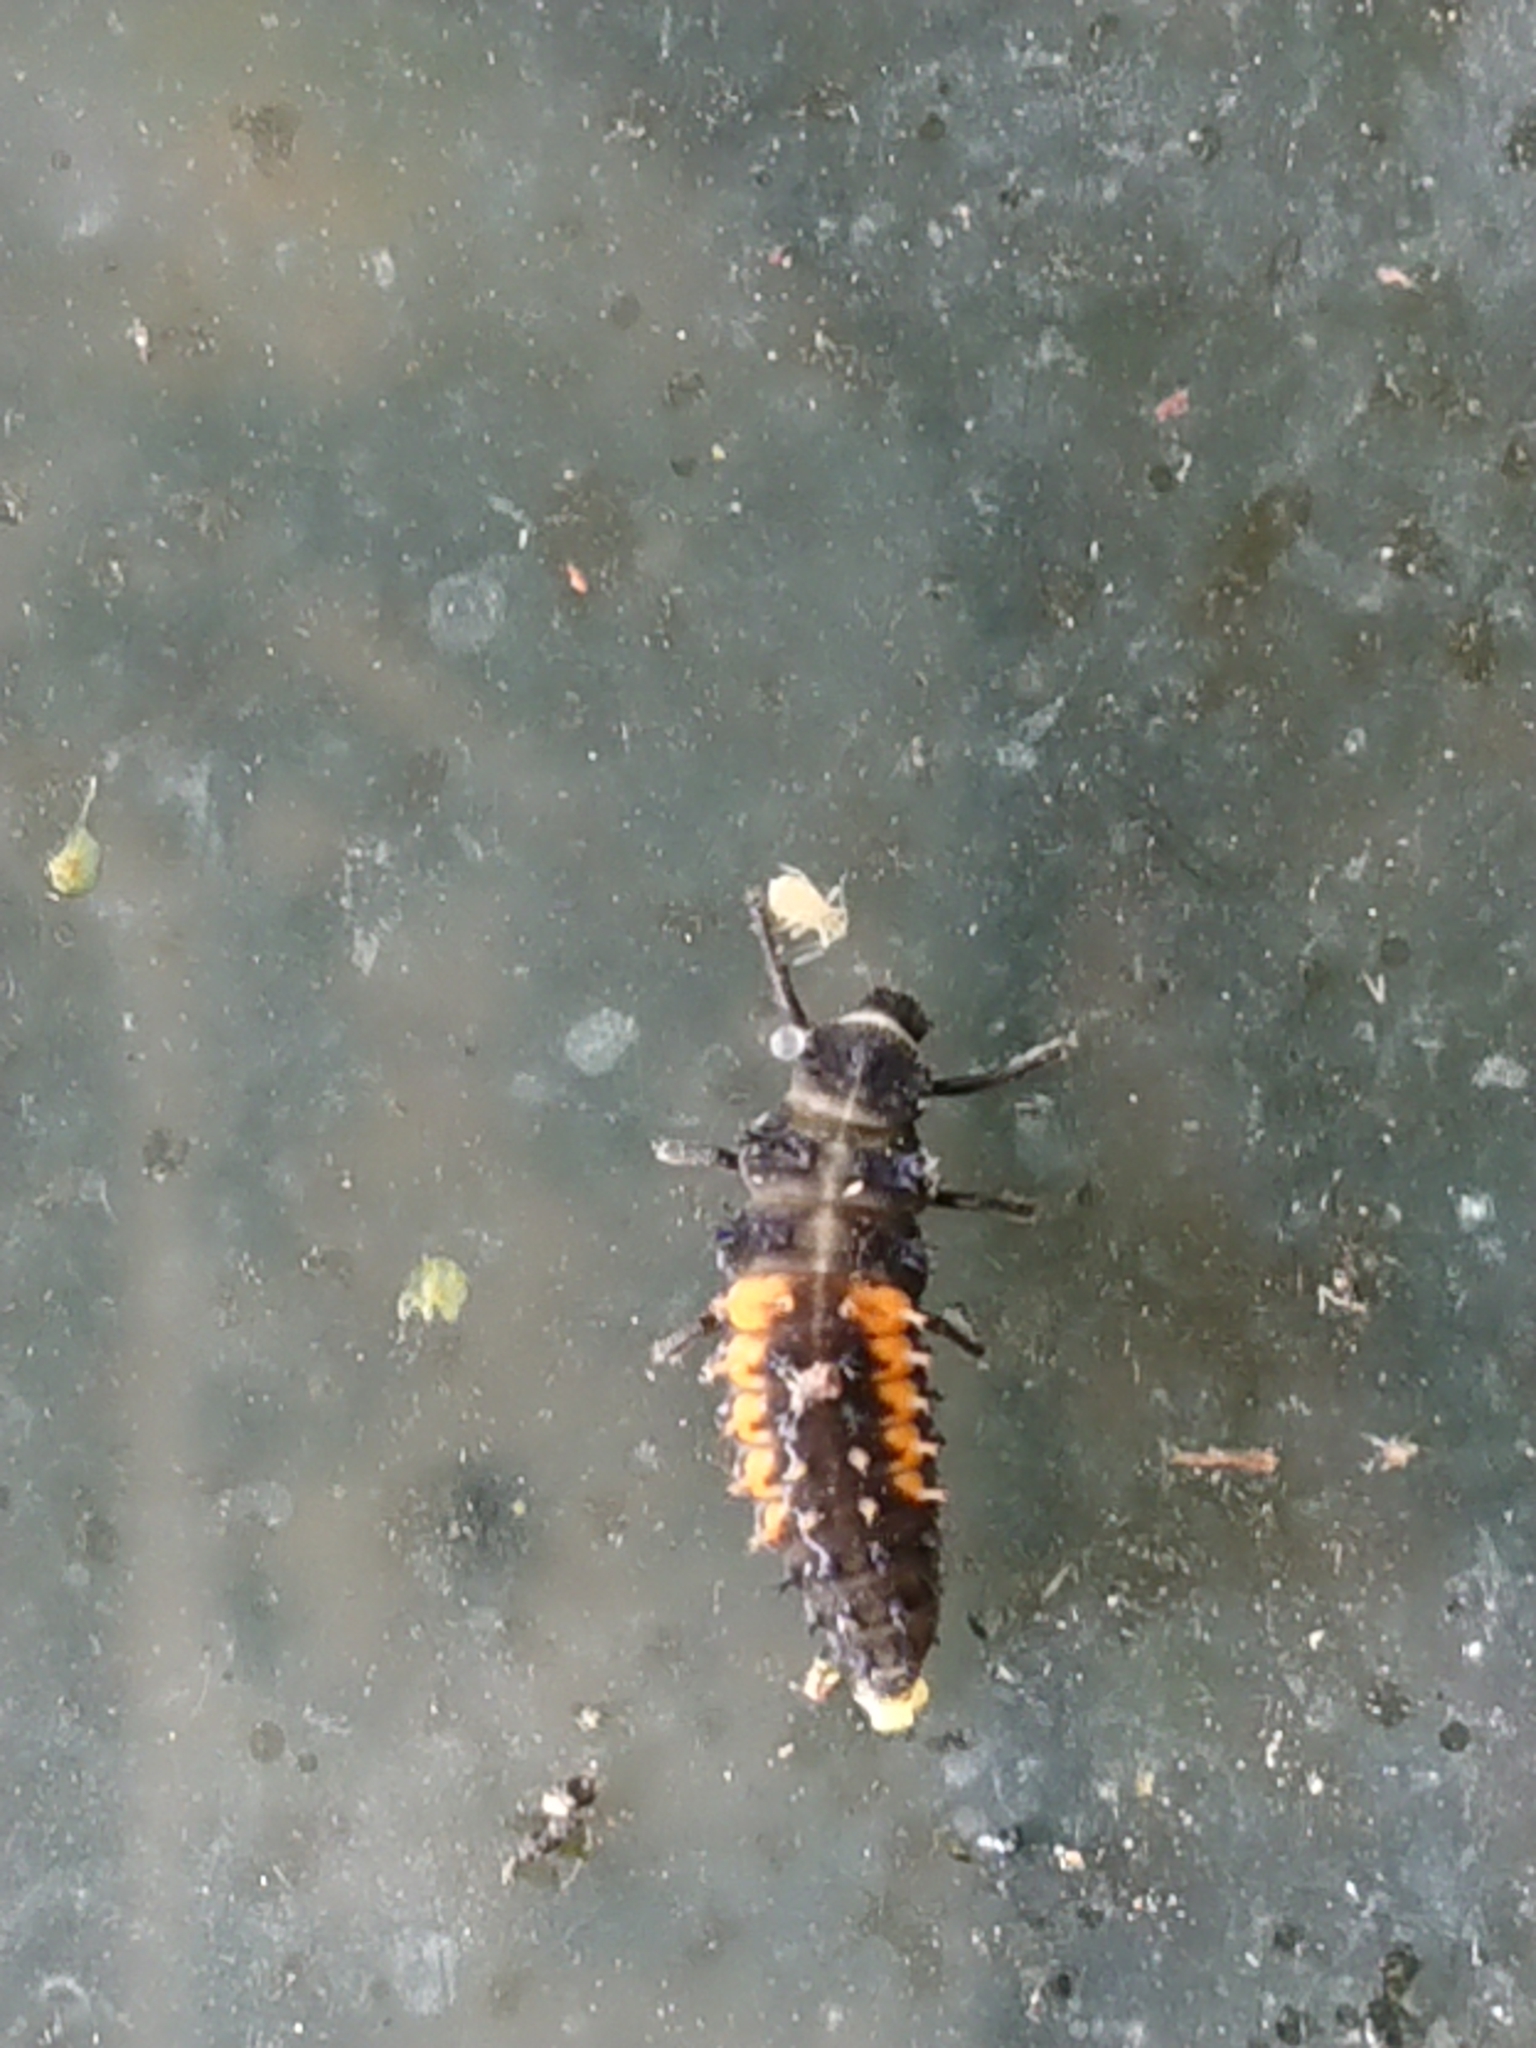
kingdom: Animalia
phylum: Arthropoda
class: Insecta
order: Coleoptera
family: Coccinellidae
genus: Harmonia
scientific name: Harmonia axyridis
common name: Harlequin ladybird
